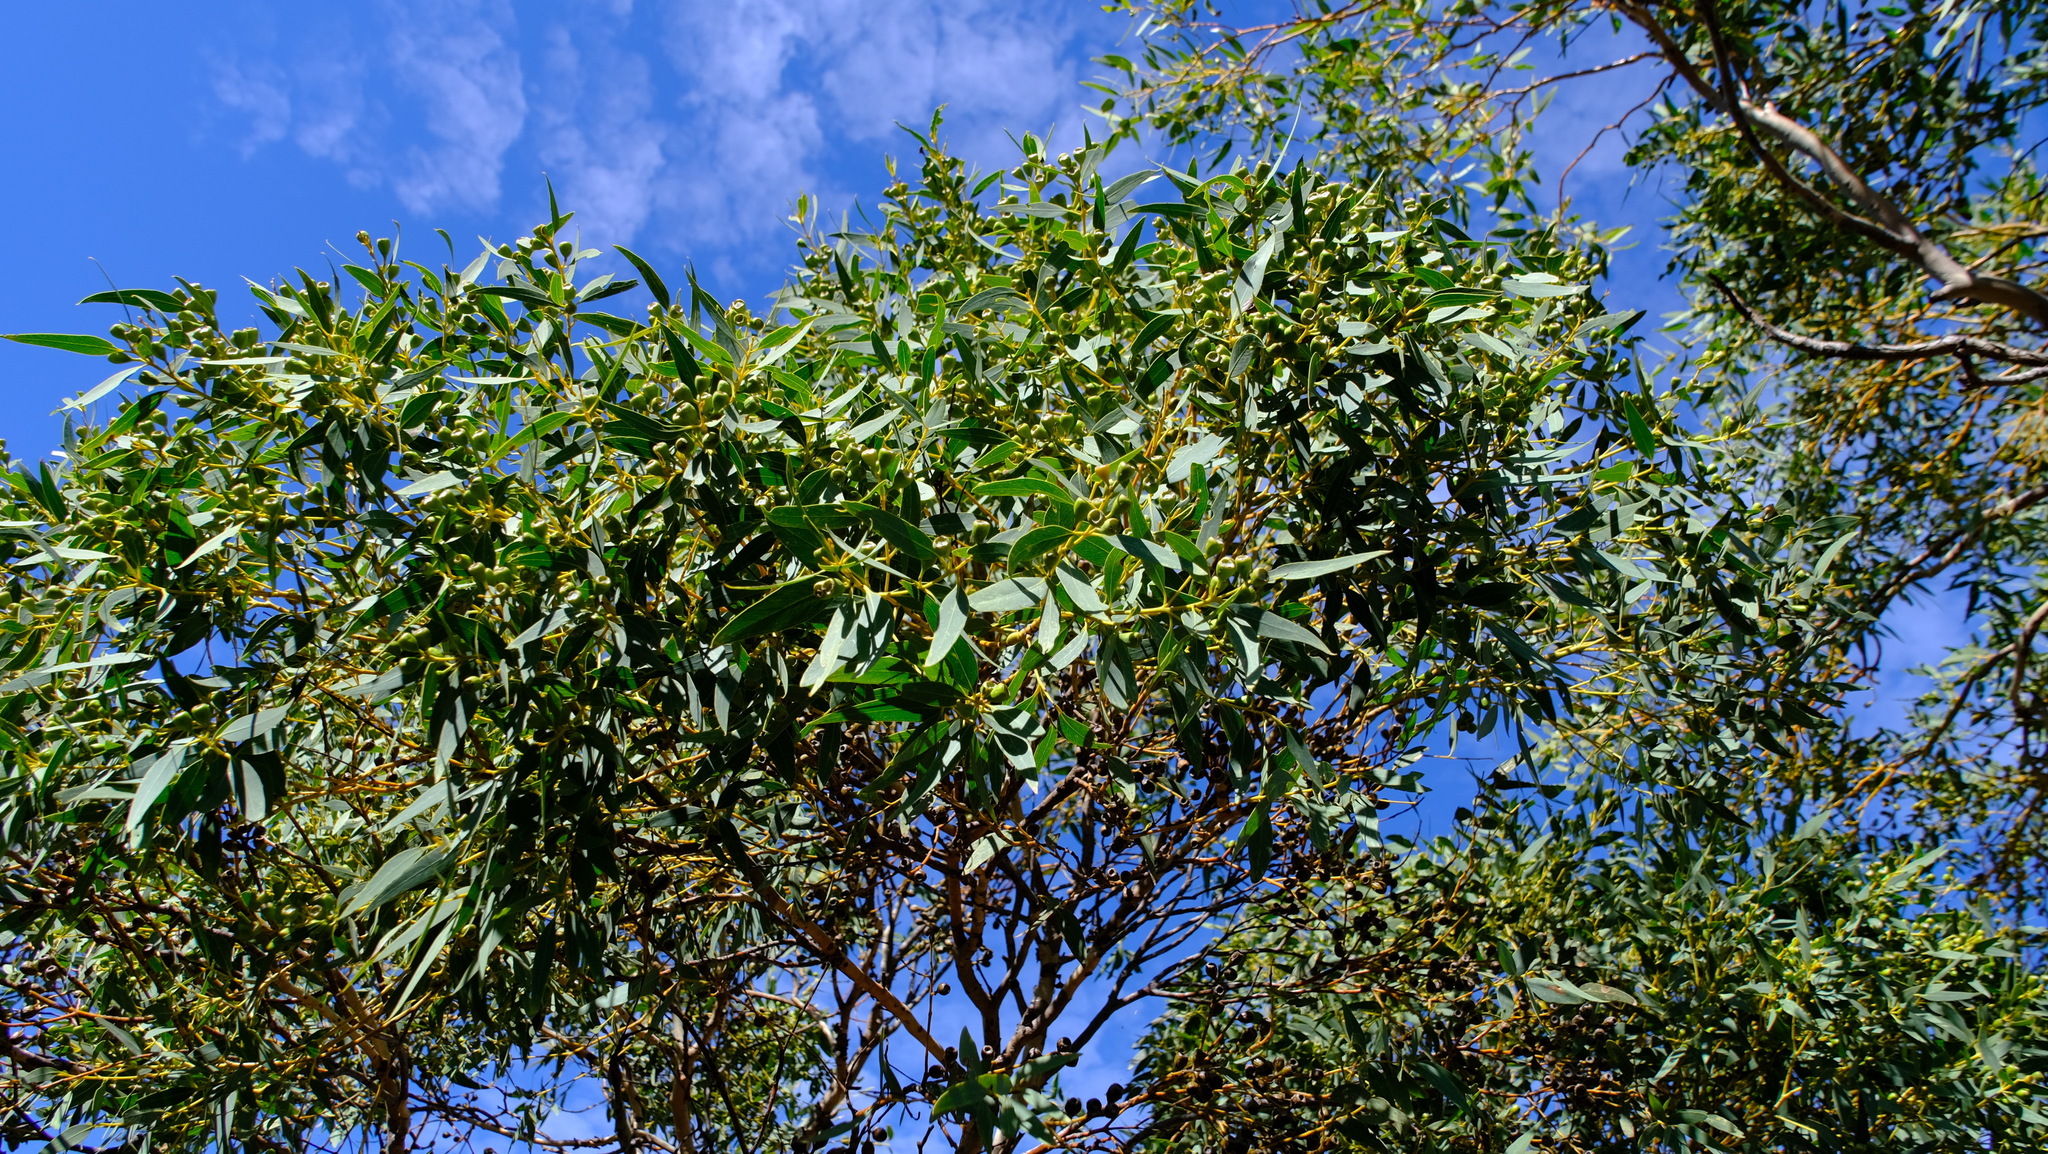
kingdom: Plantae
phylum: Tracheophyta
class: Magnoliopsida
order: Myrtales
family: Myrtaceae
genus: Eucalyptus
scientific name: Eucalyptus eudesmioides
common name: Desert gum
